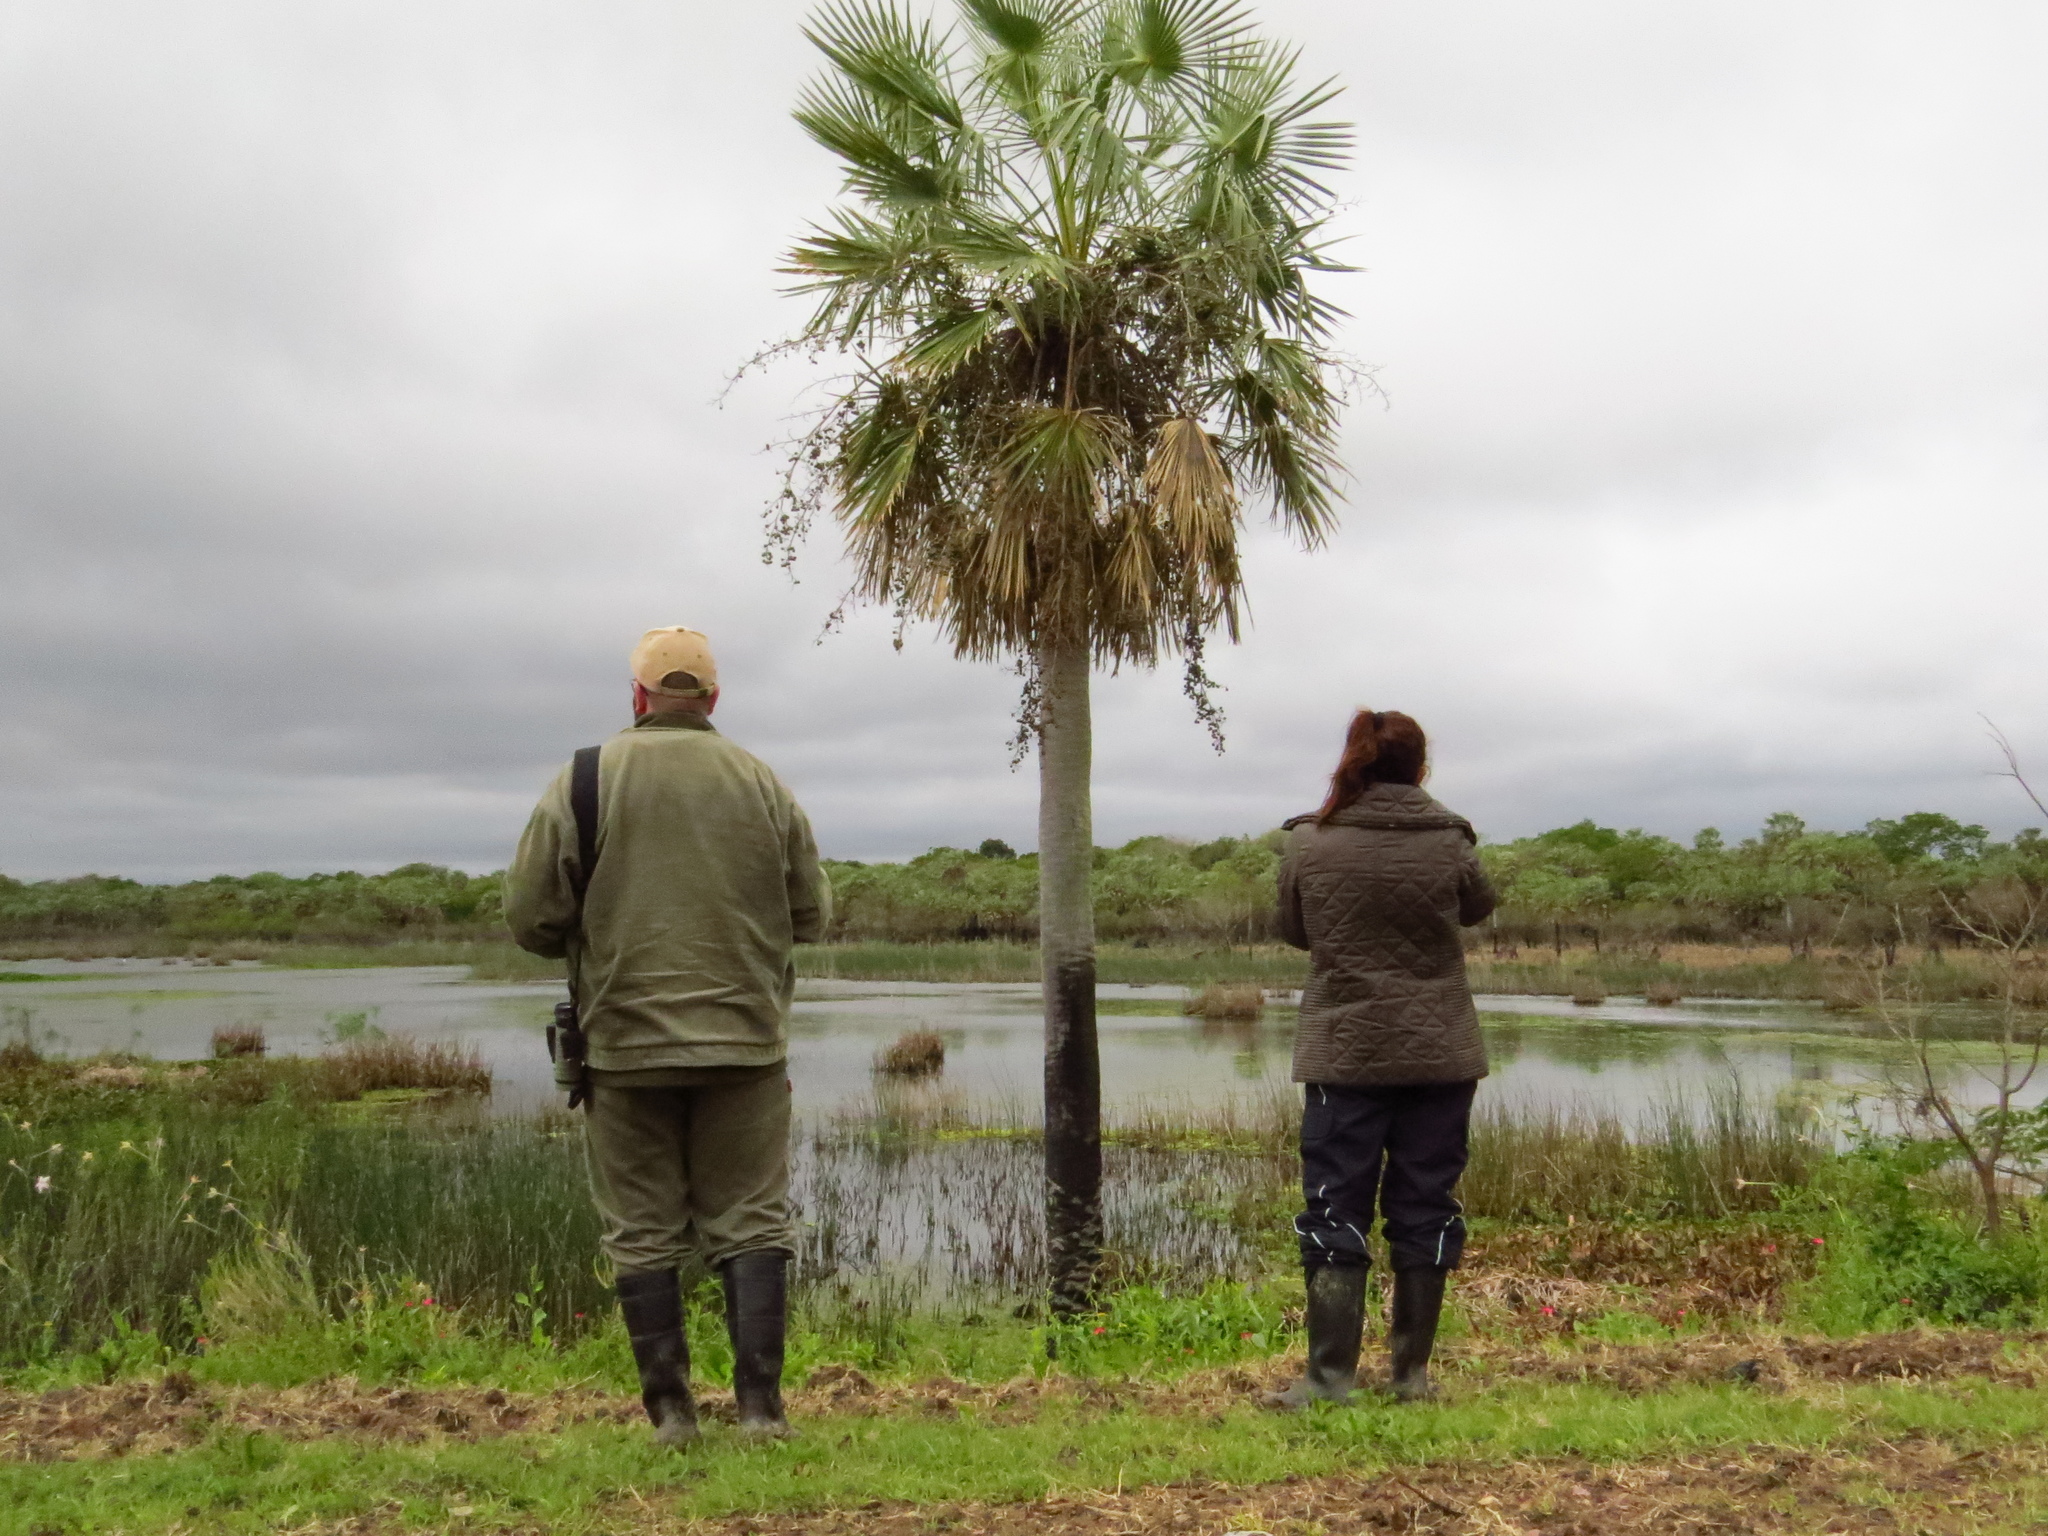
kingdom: Plantae
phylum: Tracheophyta
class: Liliopsida
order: Arecales
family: Arecaceae
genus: Copernicia
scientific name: Copernicia alba
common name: Caranday palm
